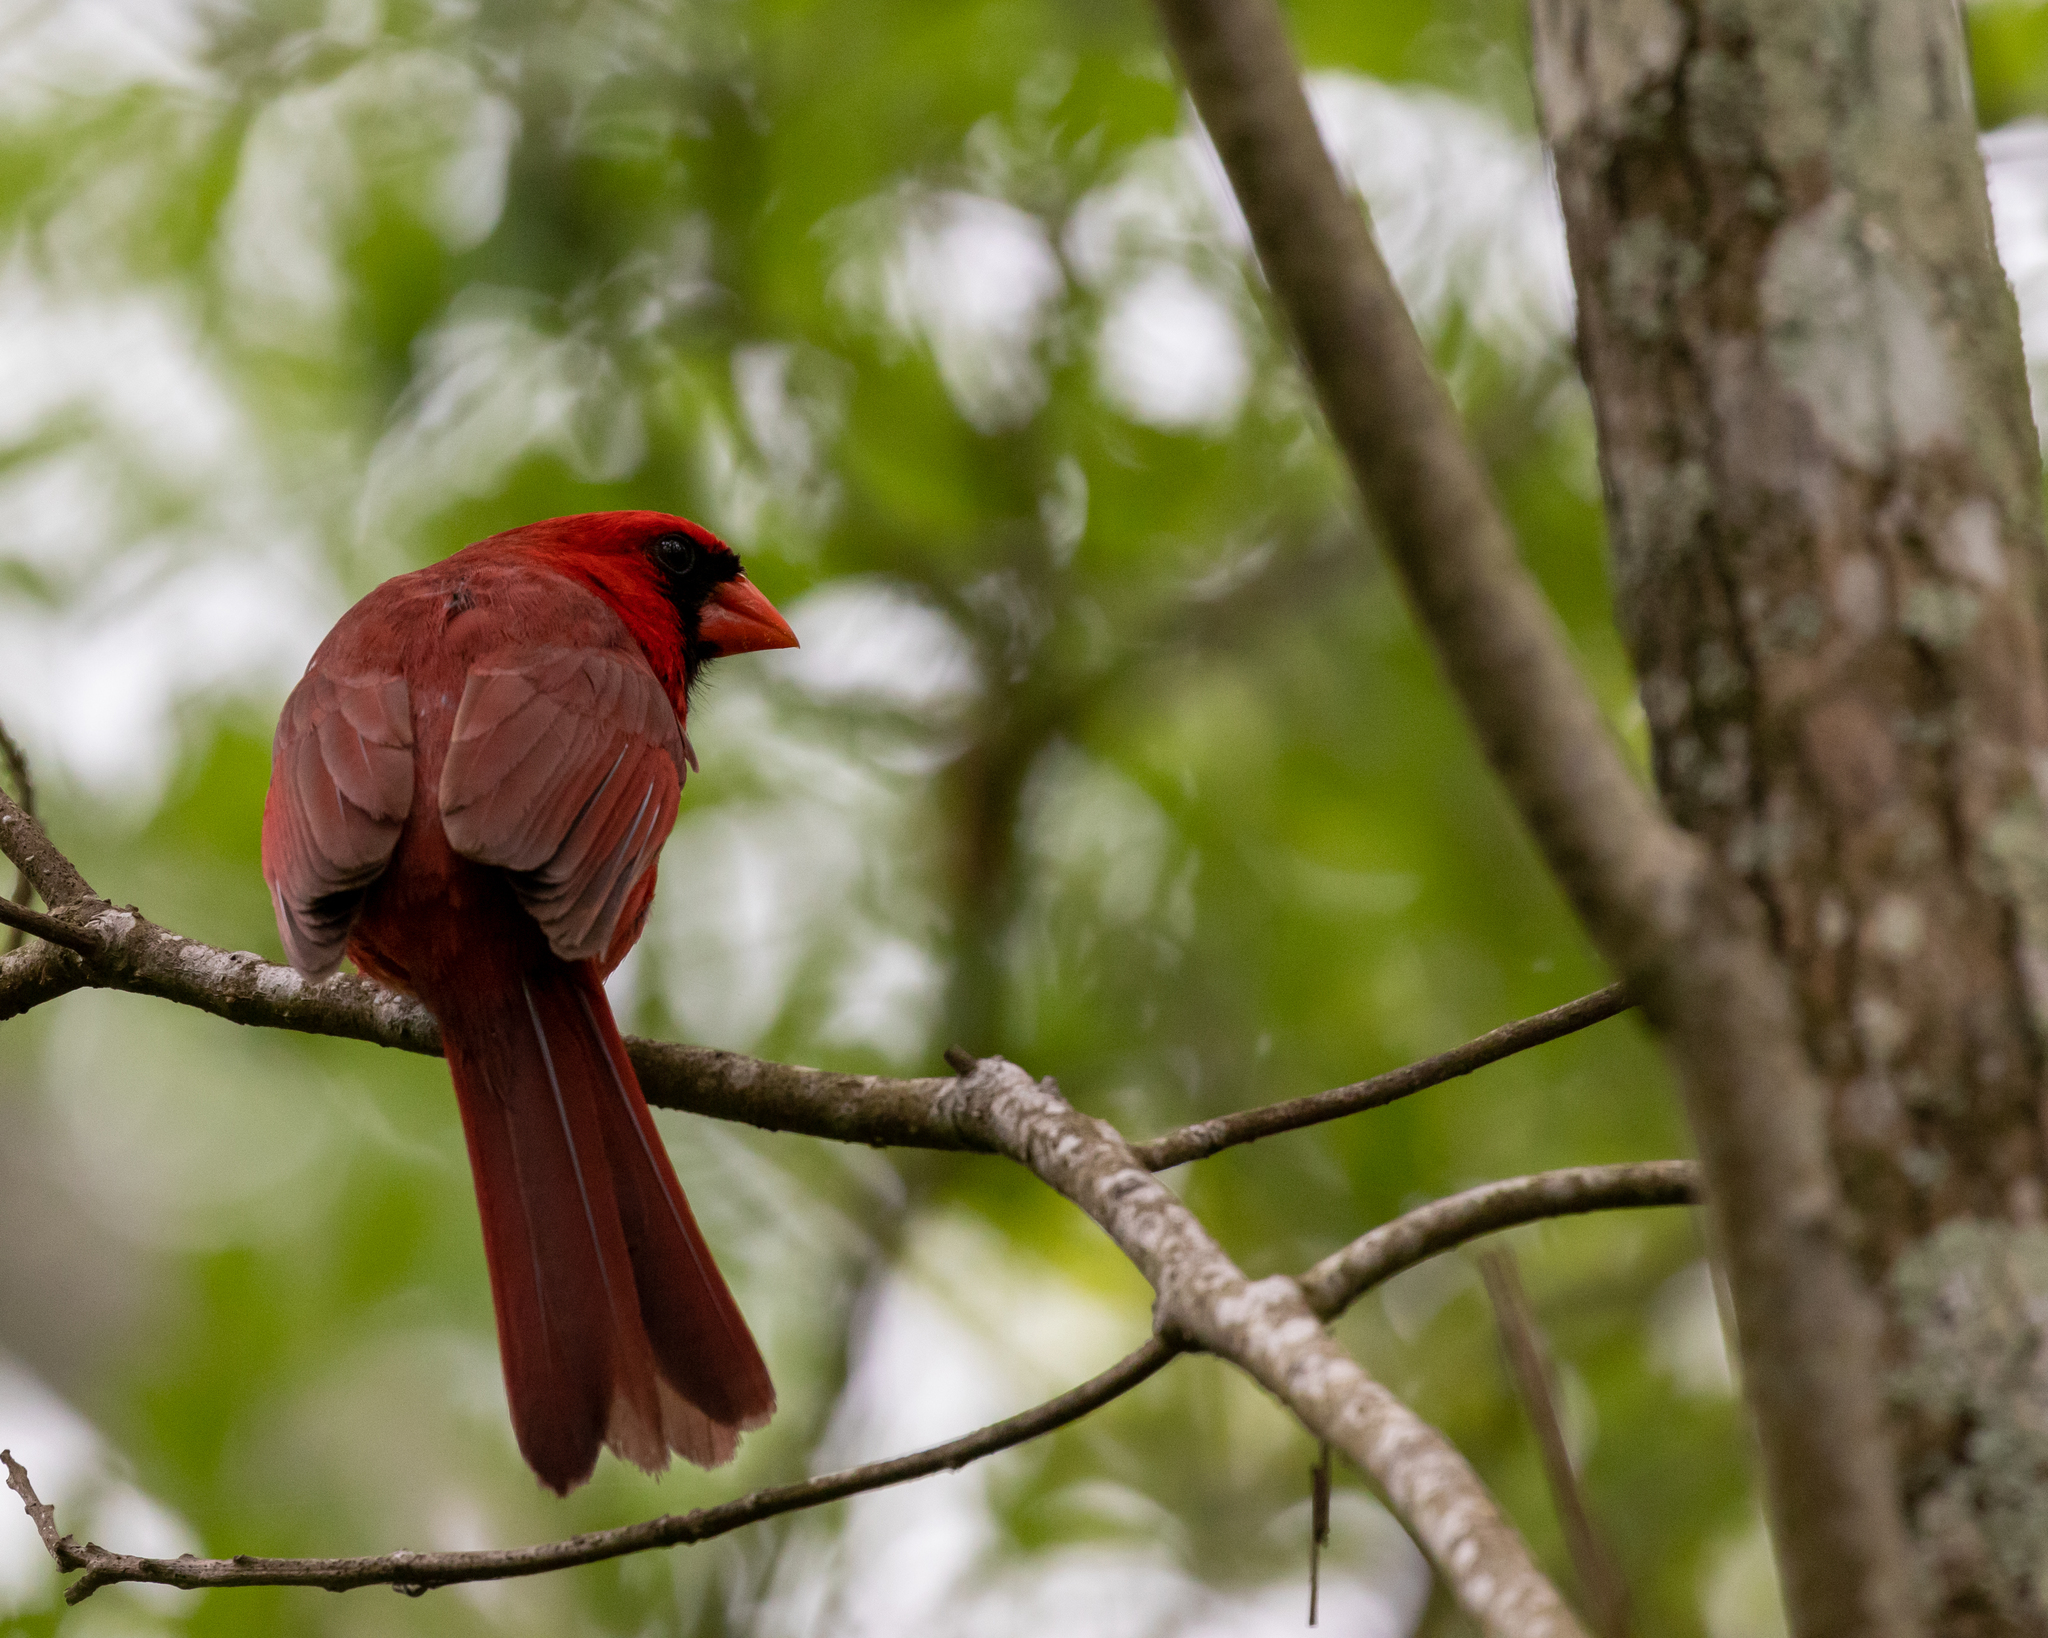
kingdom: Animalia
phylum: Chordata
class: Aves
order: Passeriformes
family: Cardinalidae
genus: Cardinalis
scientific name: Cardinalis cardinalis
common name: Northern cardinal
